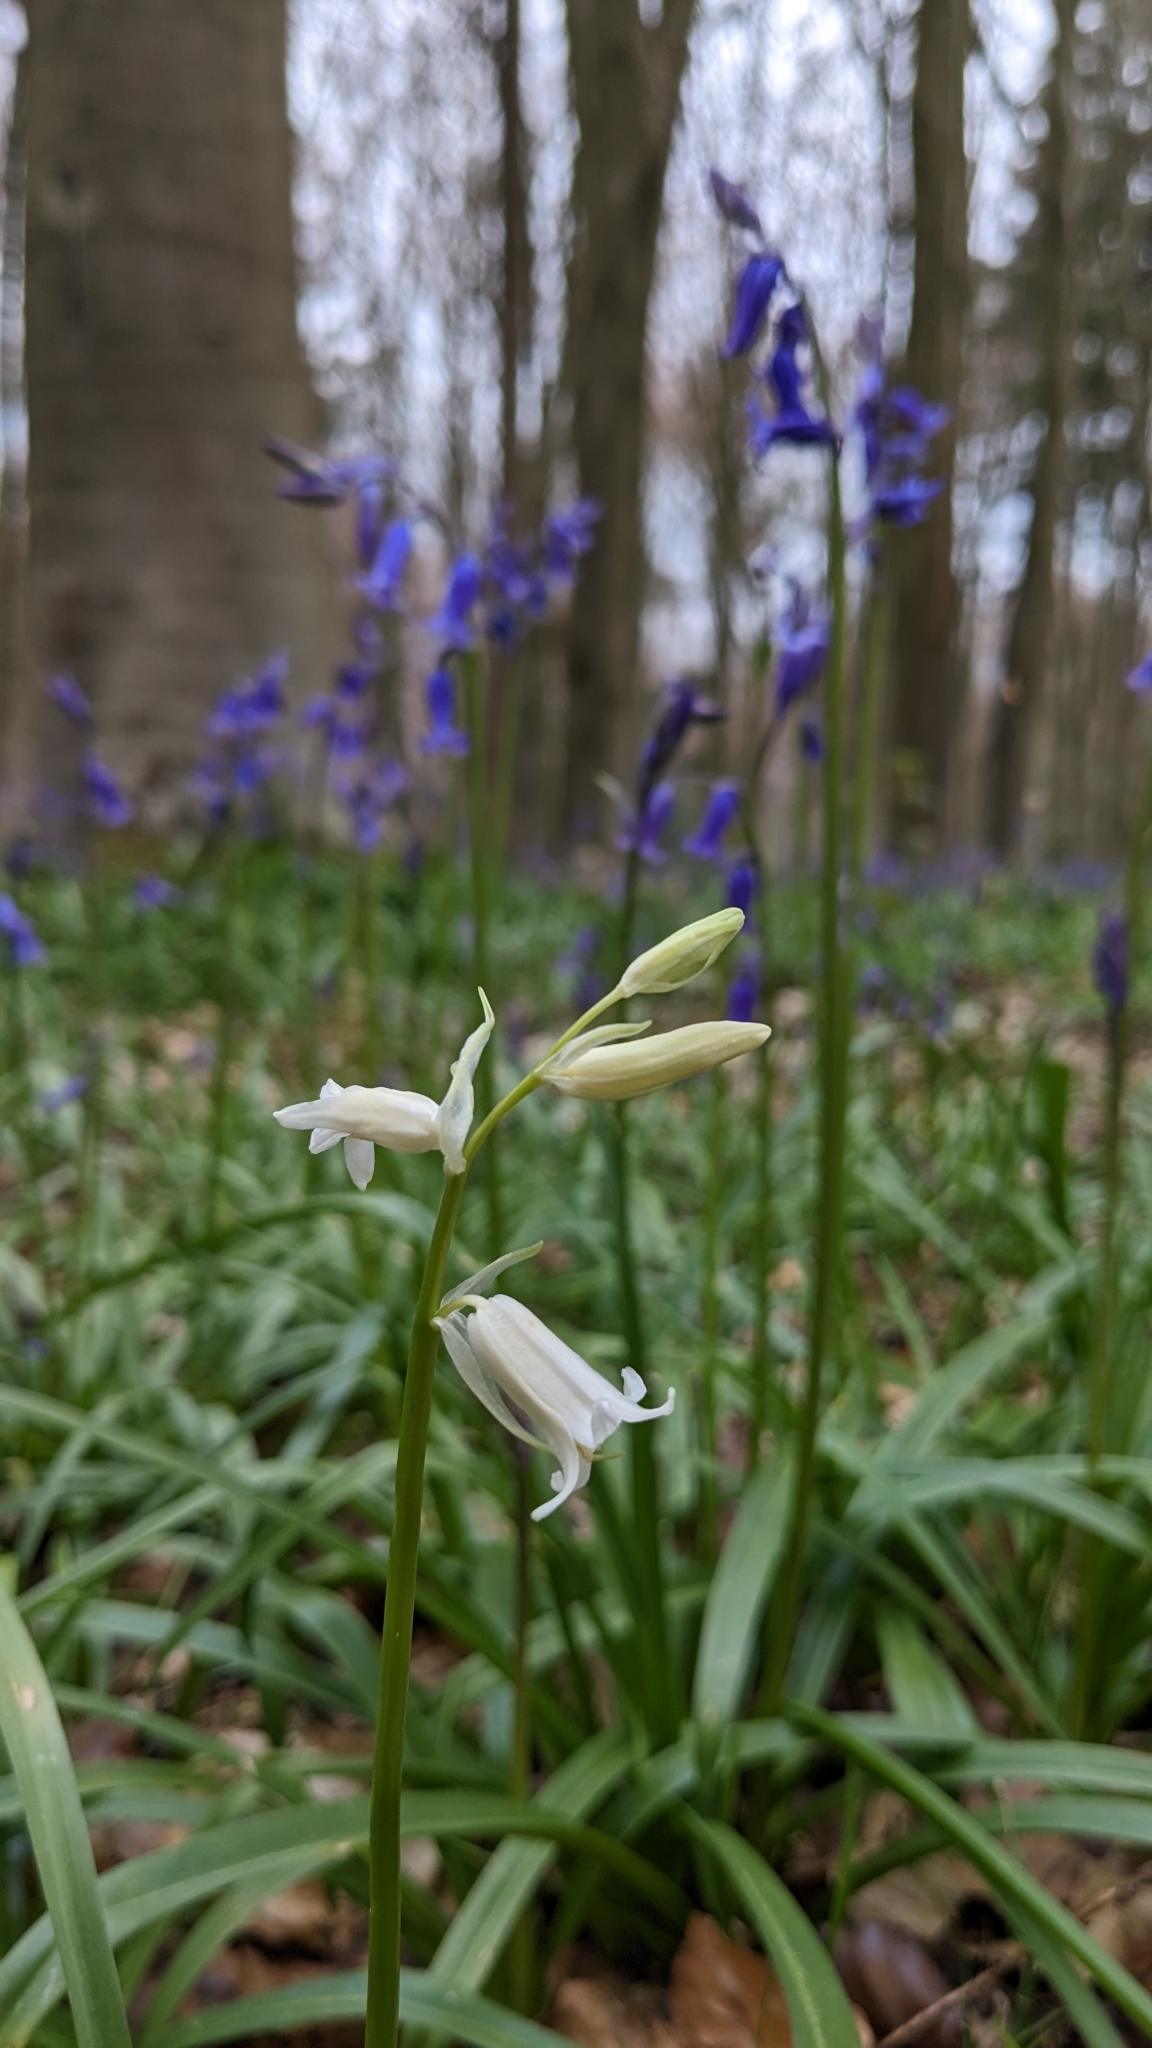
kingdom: Plantae
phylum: Tracheophyta
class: Liliopsida
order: Asparagales
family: Asparagaceae
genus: Hyacinthoides
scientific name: Hyacinthoides non-scripta
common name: Bluebell
